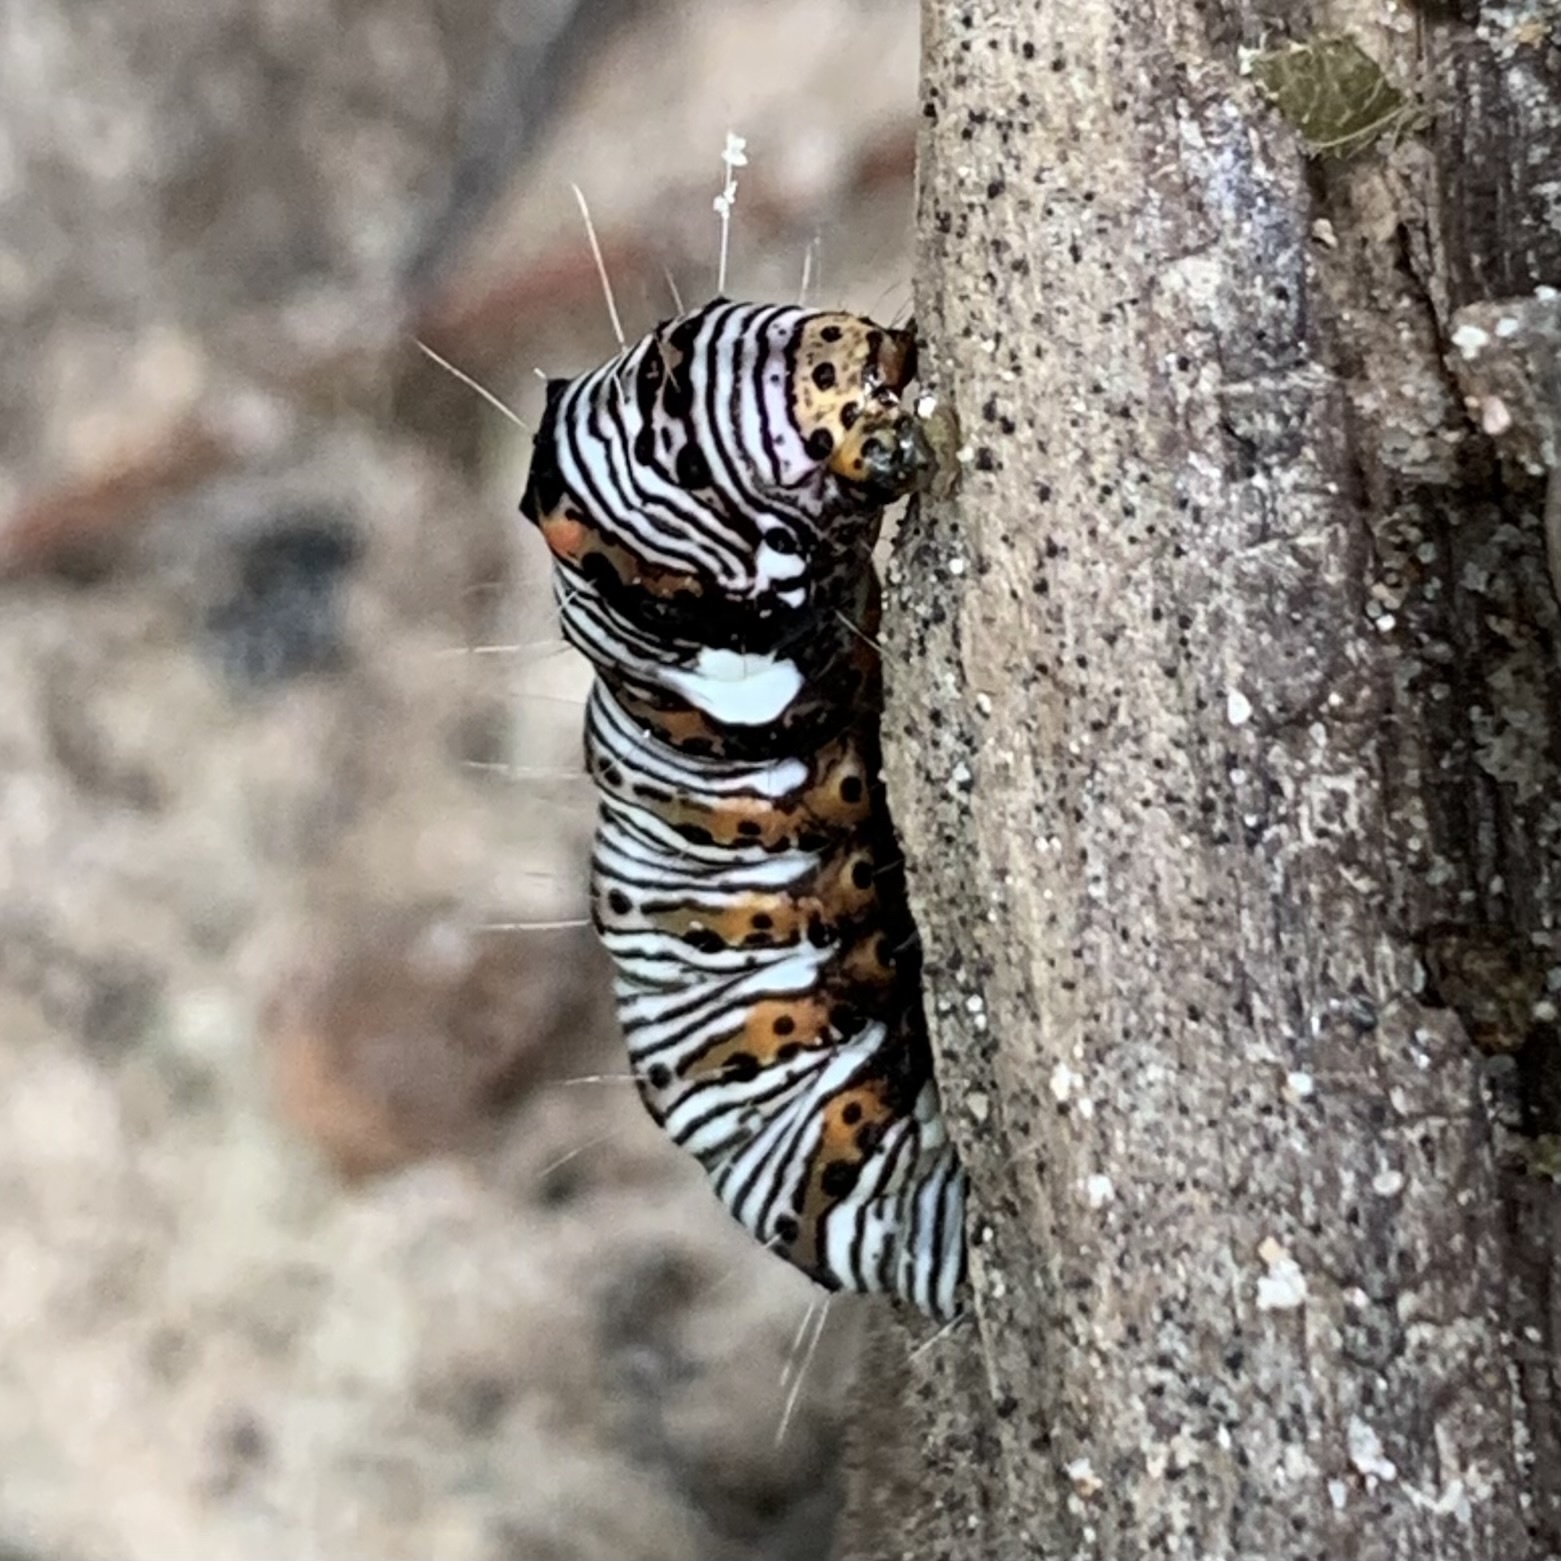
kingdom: Animalia
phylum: Arthropoda
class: Insecta
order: Lepidoptera
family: Noctuidae
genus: Alypia
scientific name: Alypia octomaculata
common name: Eight-spotted forester
